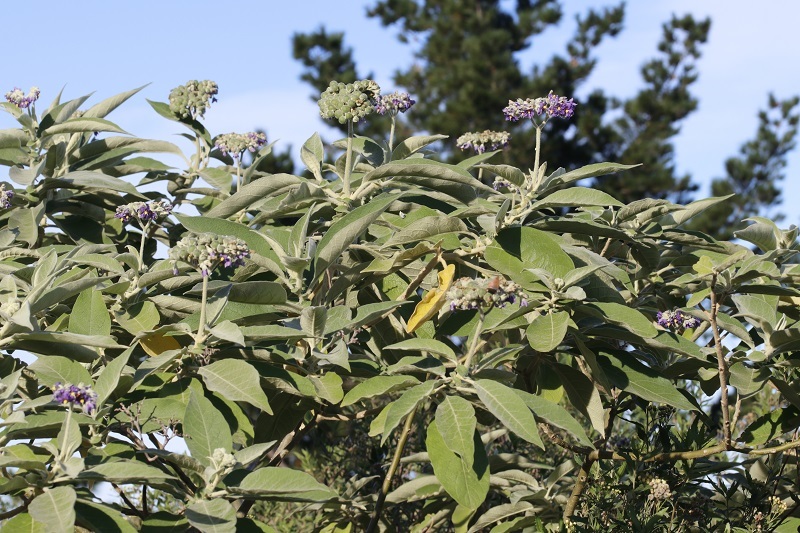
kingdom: Plantae
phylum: Tracheophyta
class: Magnoliopsida
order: Solanales
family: Solanaceae
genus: Solanum
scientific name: Solanum mauritianum
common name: Earleaf nightshade
